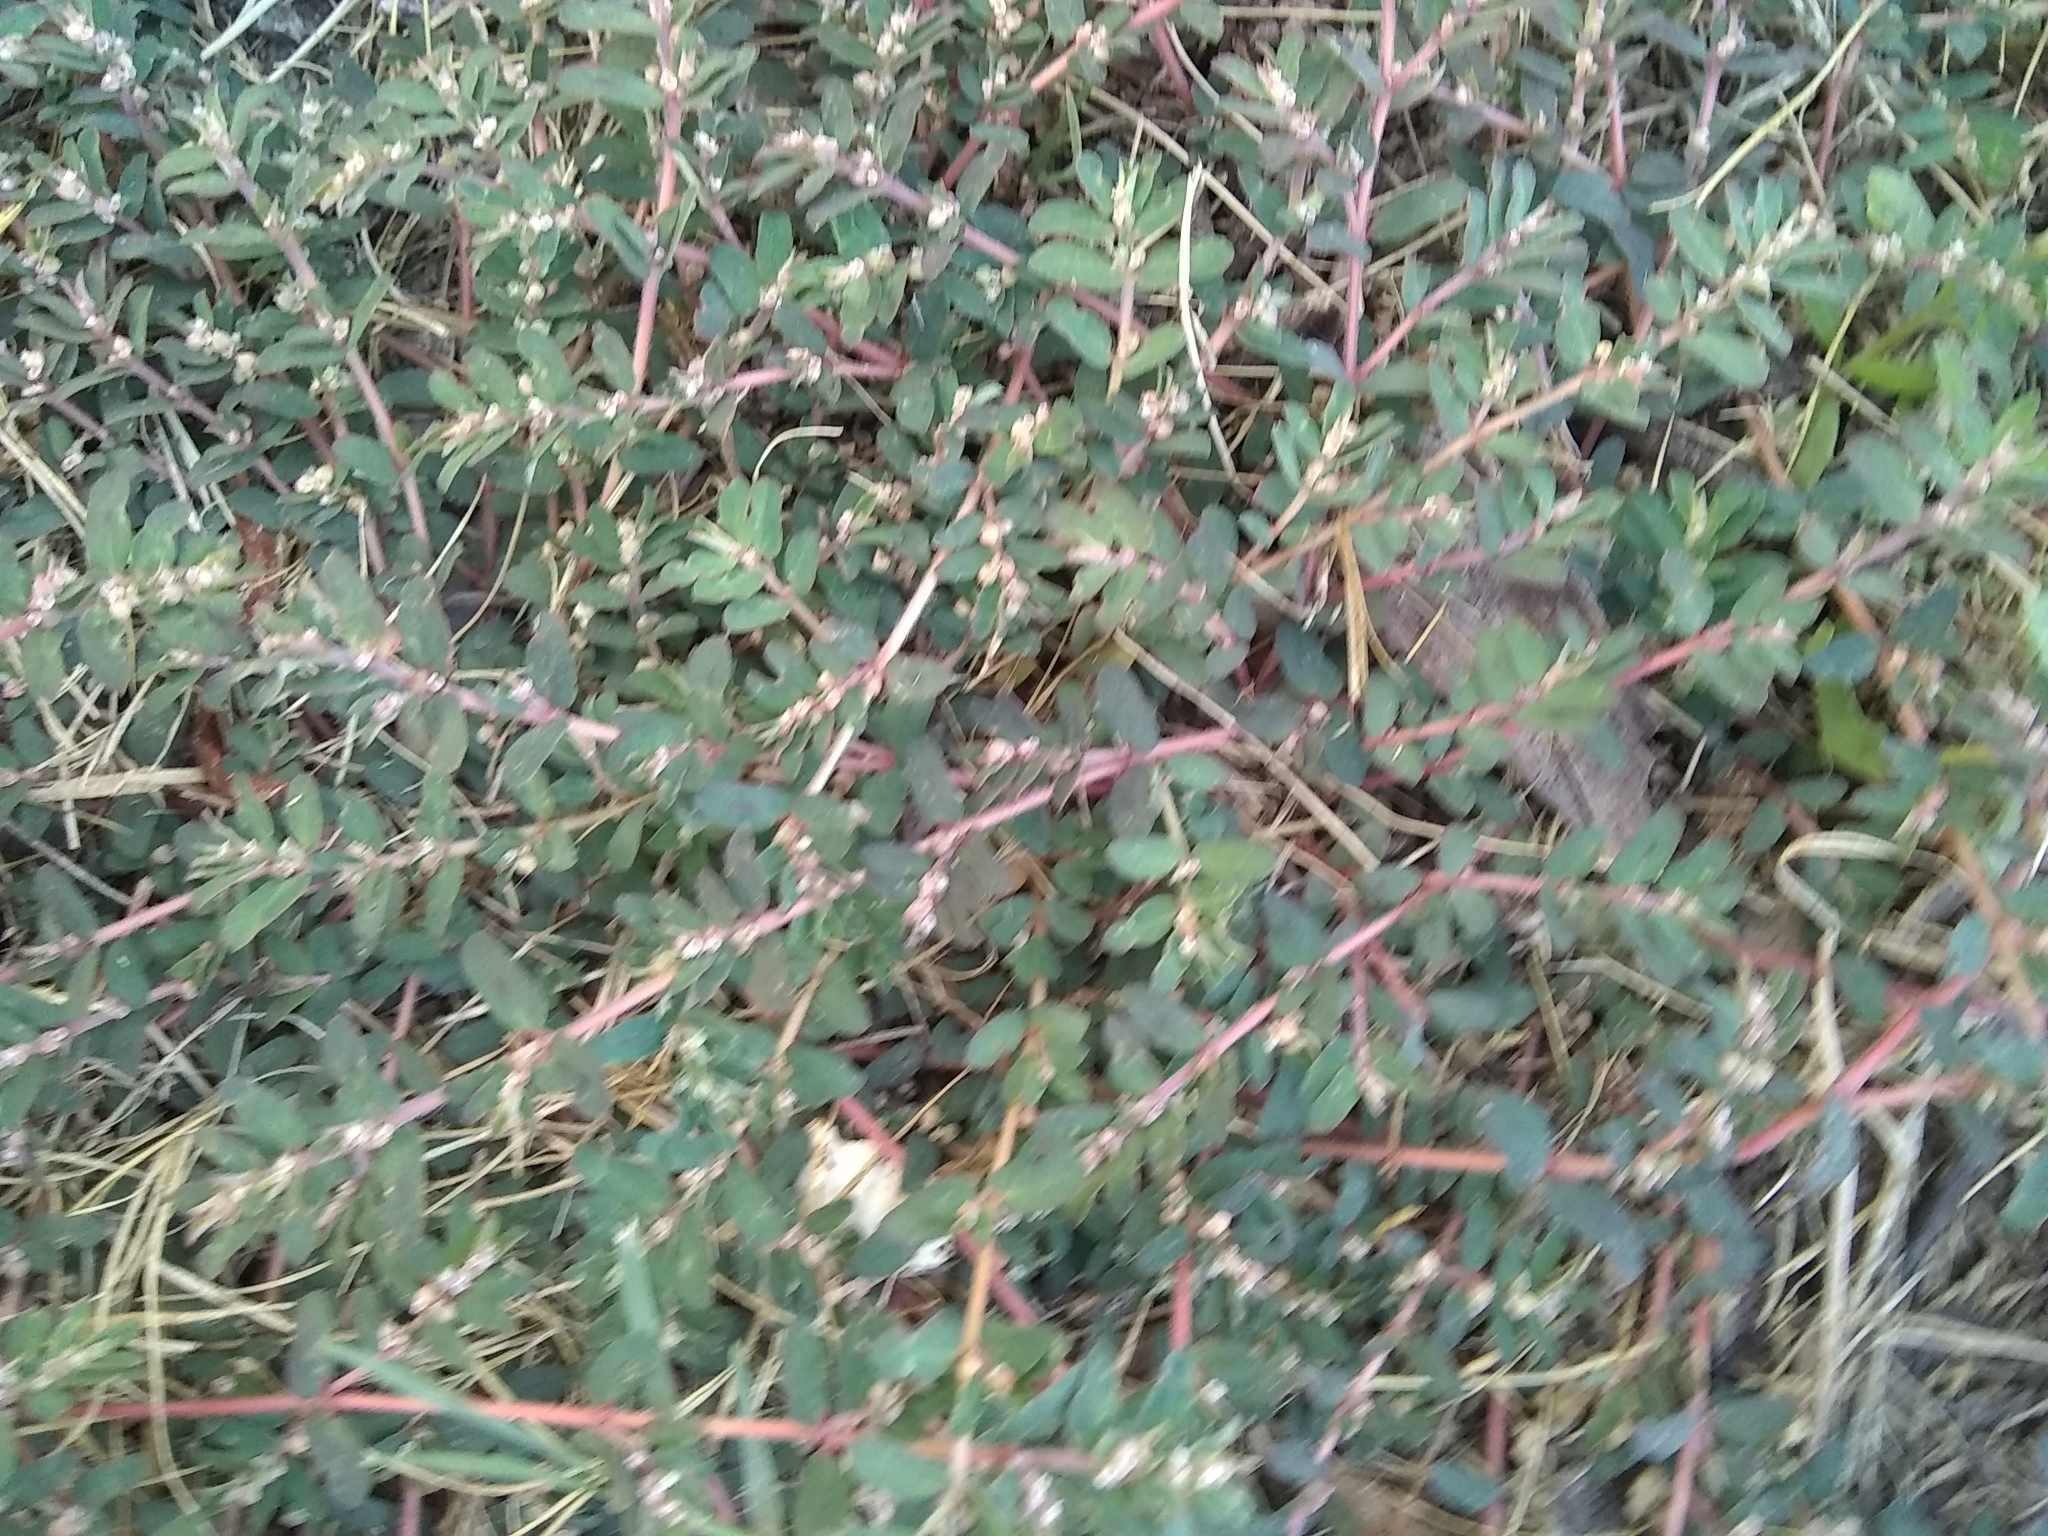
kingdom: Plantae
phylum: Tracheophyta
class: Magnoliopsida
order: Malpighiales
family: Euphorbiaceae
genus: Euphorbia
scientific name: Euphorbia maculata
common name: Spotted spurge
